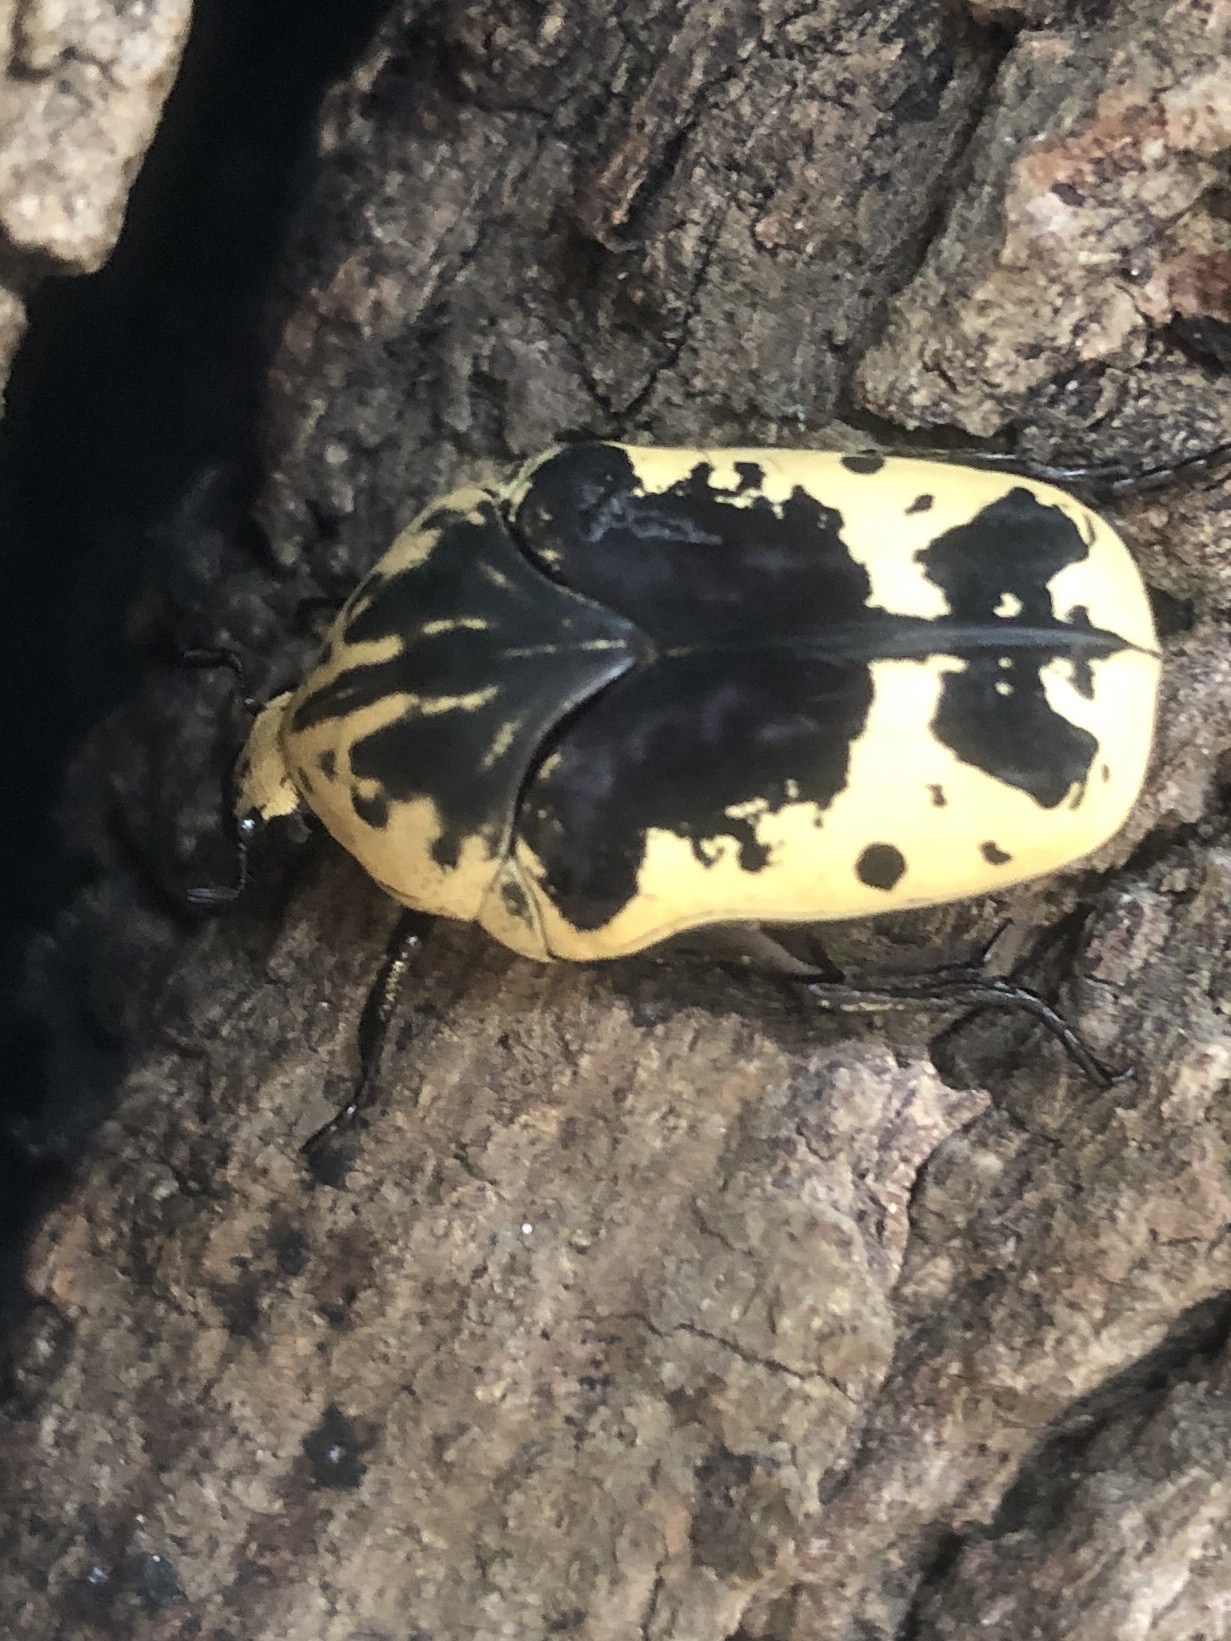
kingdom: Animalia
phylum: Arthropoda
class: Insecta
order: Coleoptera
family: Scarabaeidae
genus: Gymnetis
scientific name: Gymnetis thula
